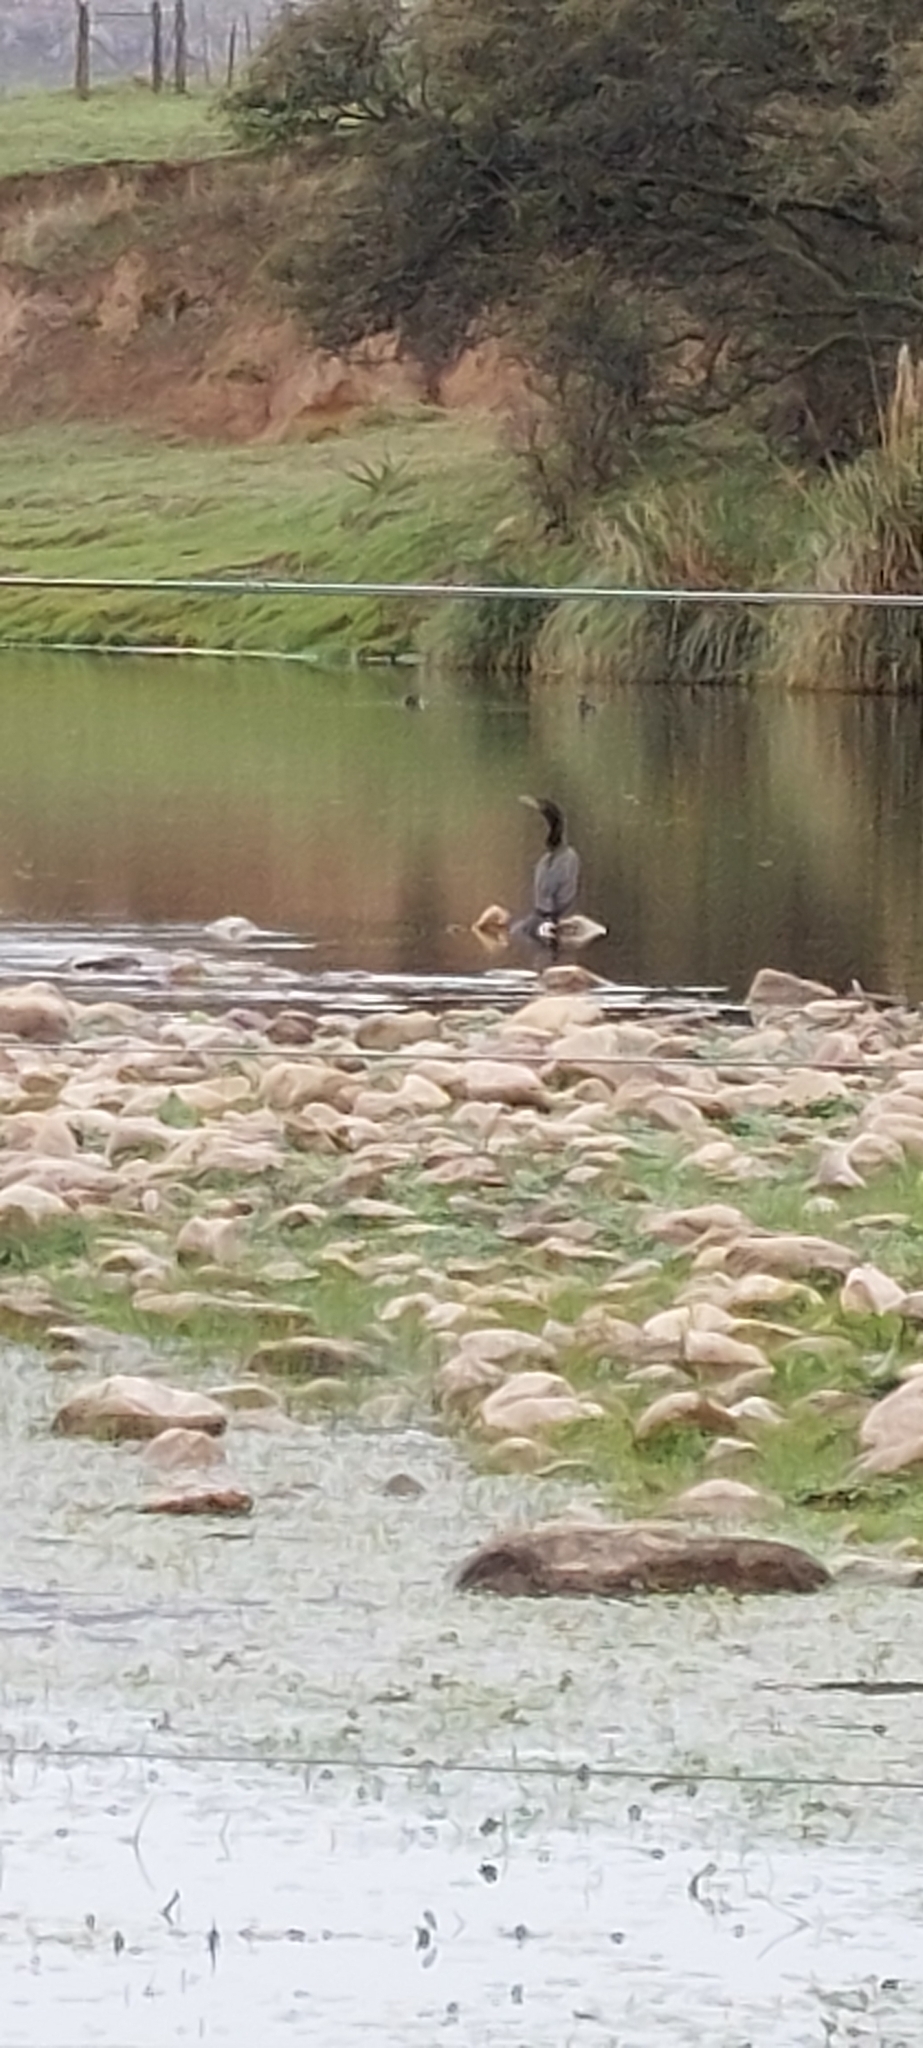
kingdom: Animalia
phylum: Chordata
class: Aves
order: Suliformes
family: Phalacrocoracidae
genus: Phalacrocorax
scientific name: Phalacrocorax brasilianus
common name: Neotropic cormorant
